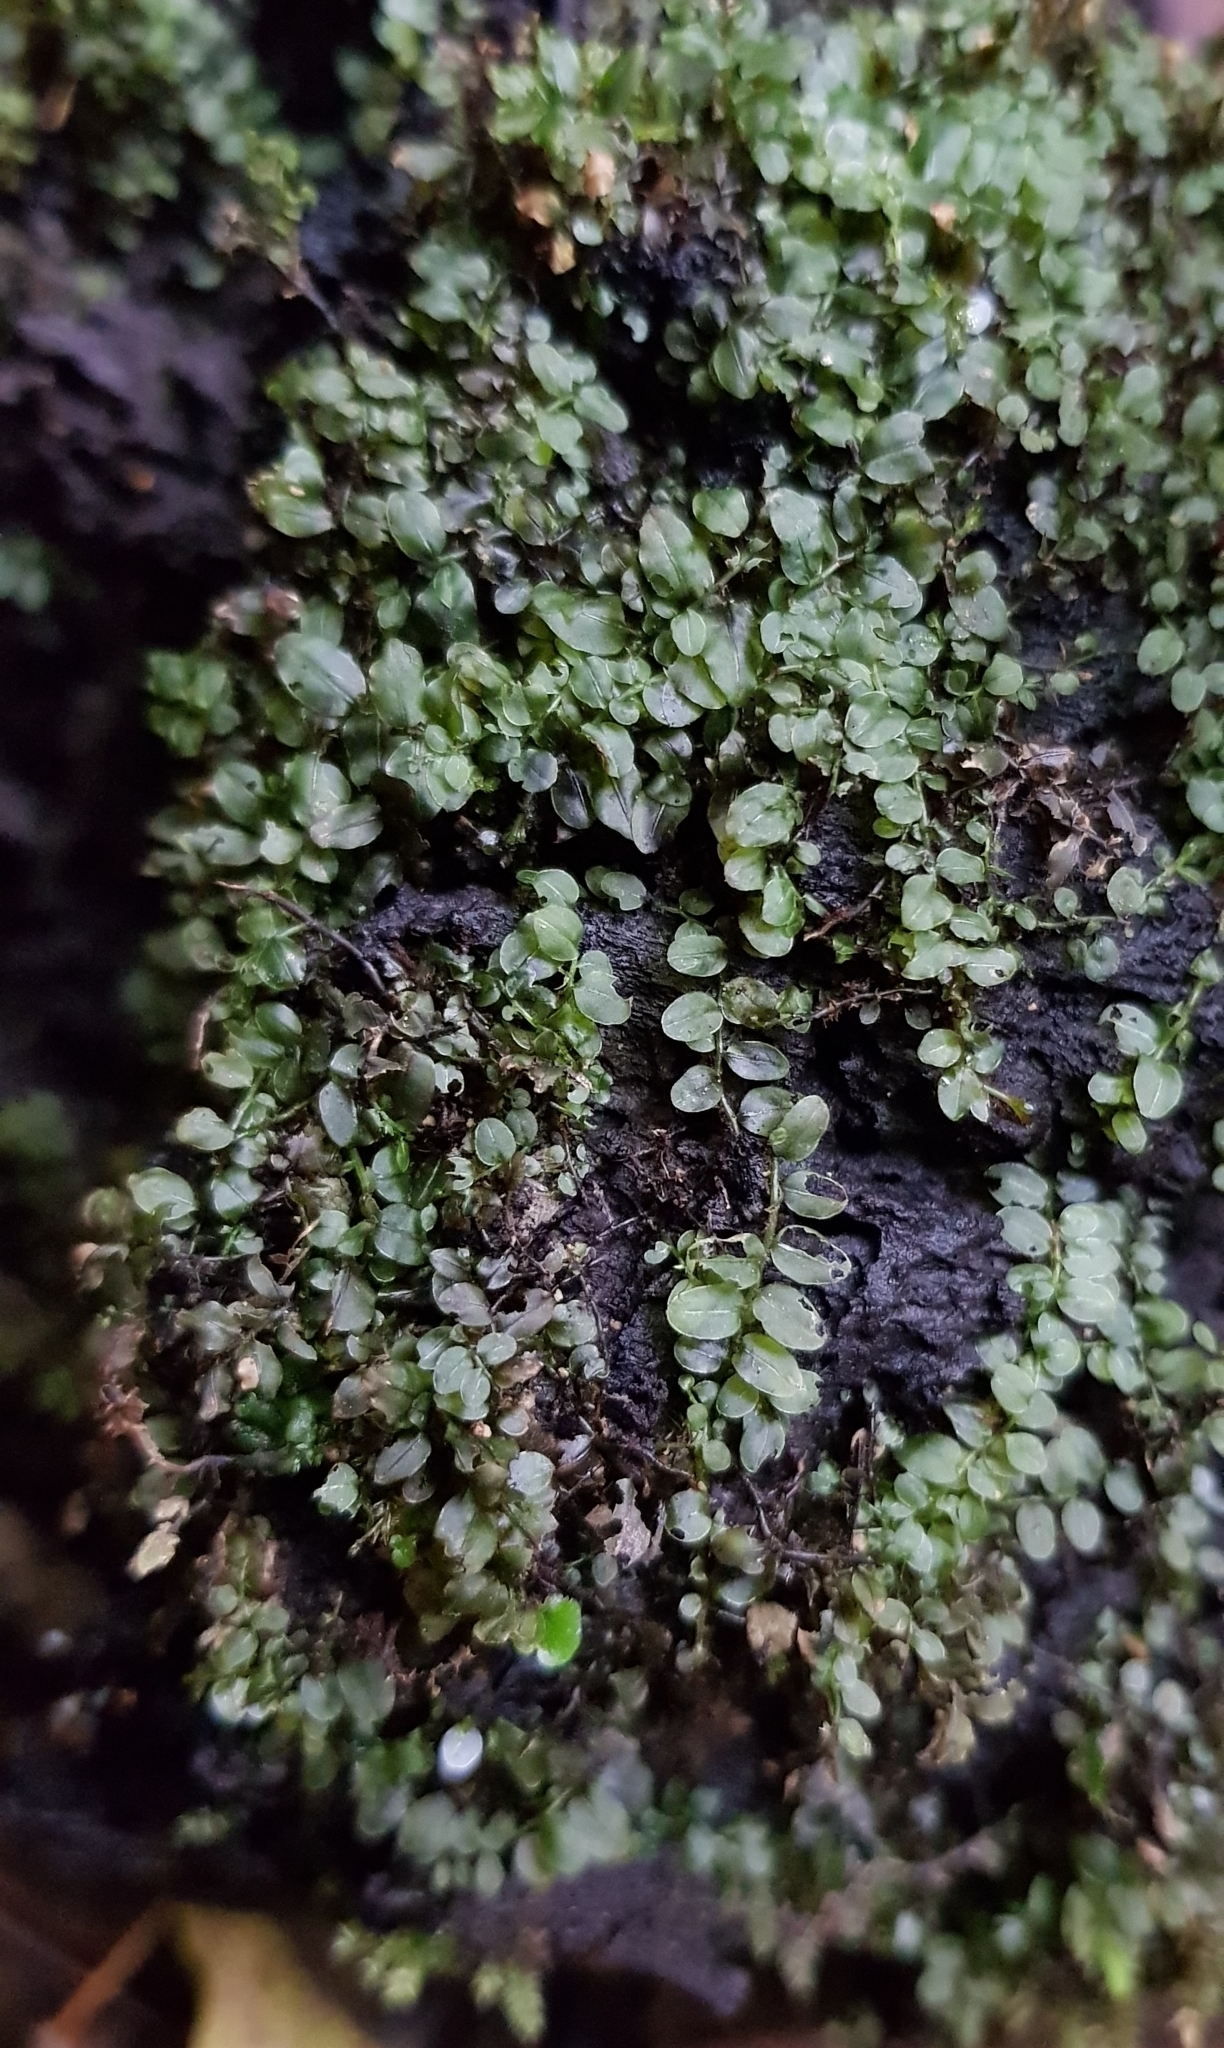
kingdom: Plantae
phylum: Bryophyta
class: Bryopsida
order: Bryales
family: Mniaceae
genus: Rhizomnium
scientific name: Rhizomnium punctatum
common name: Dotted leafy moss
